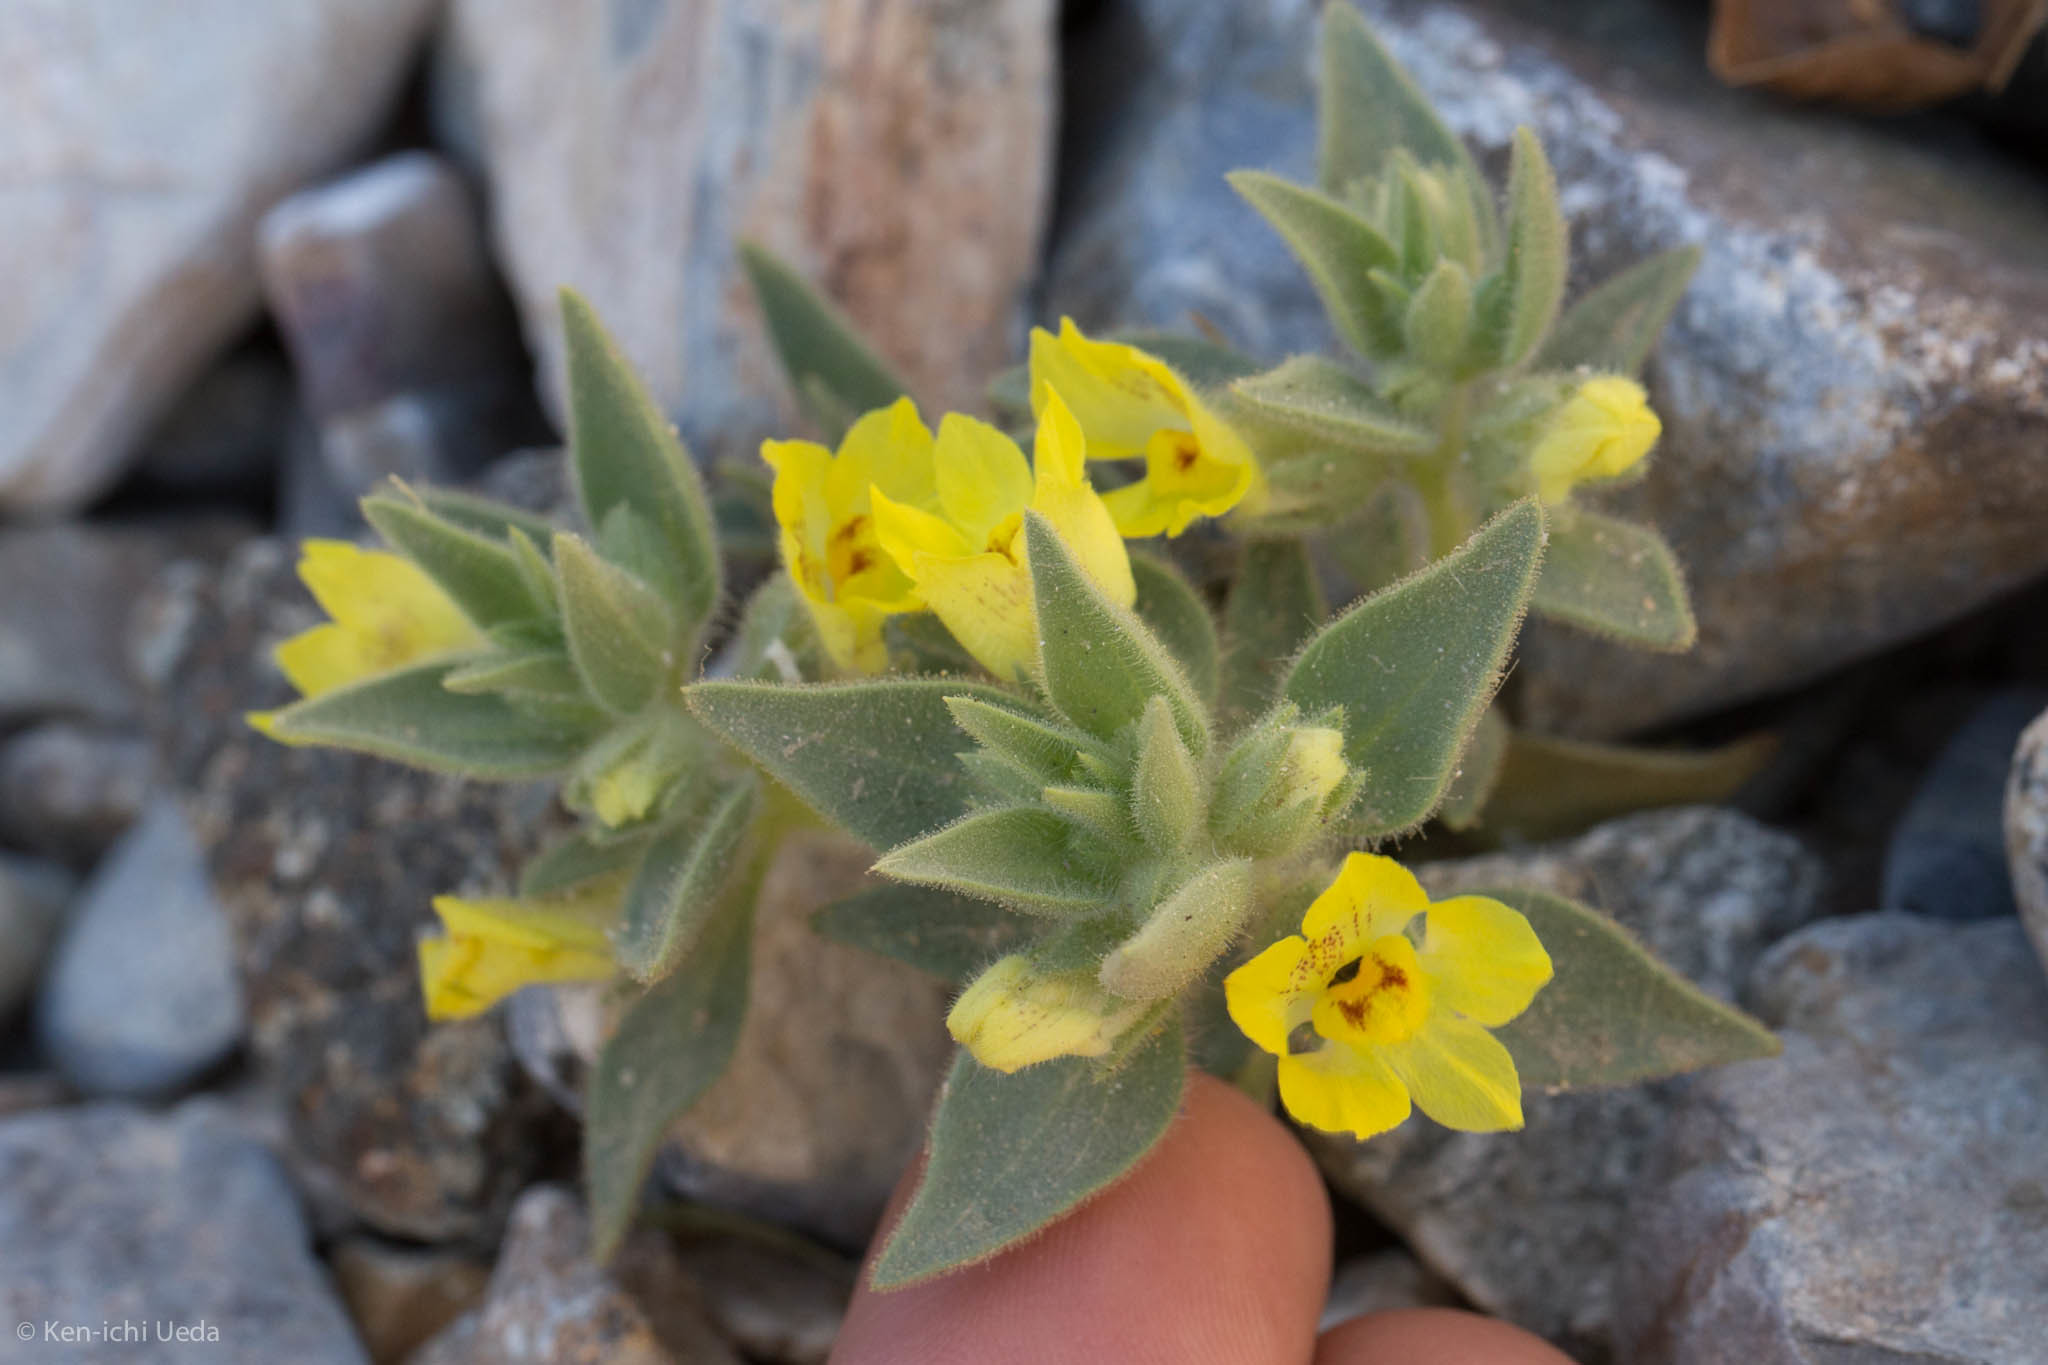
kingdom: Plantae
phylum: Tracheophyta
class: Magnoliopsida
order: Lamiales
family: Plantaginaceae
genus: Mohavea
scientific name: Mohavea breviflora
